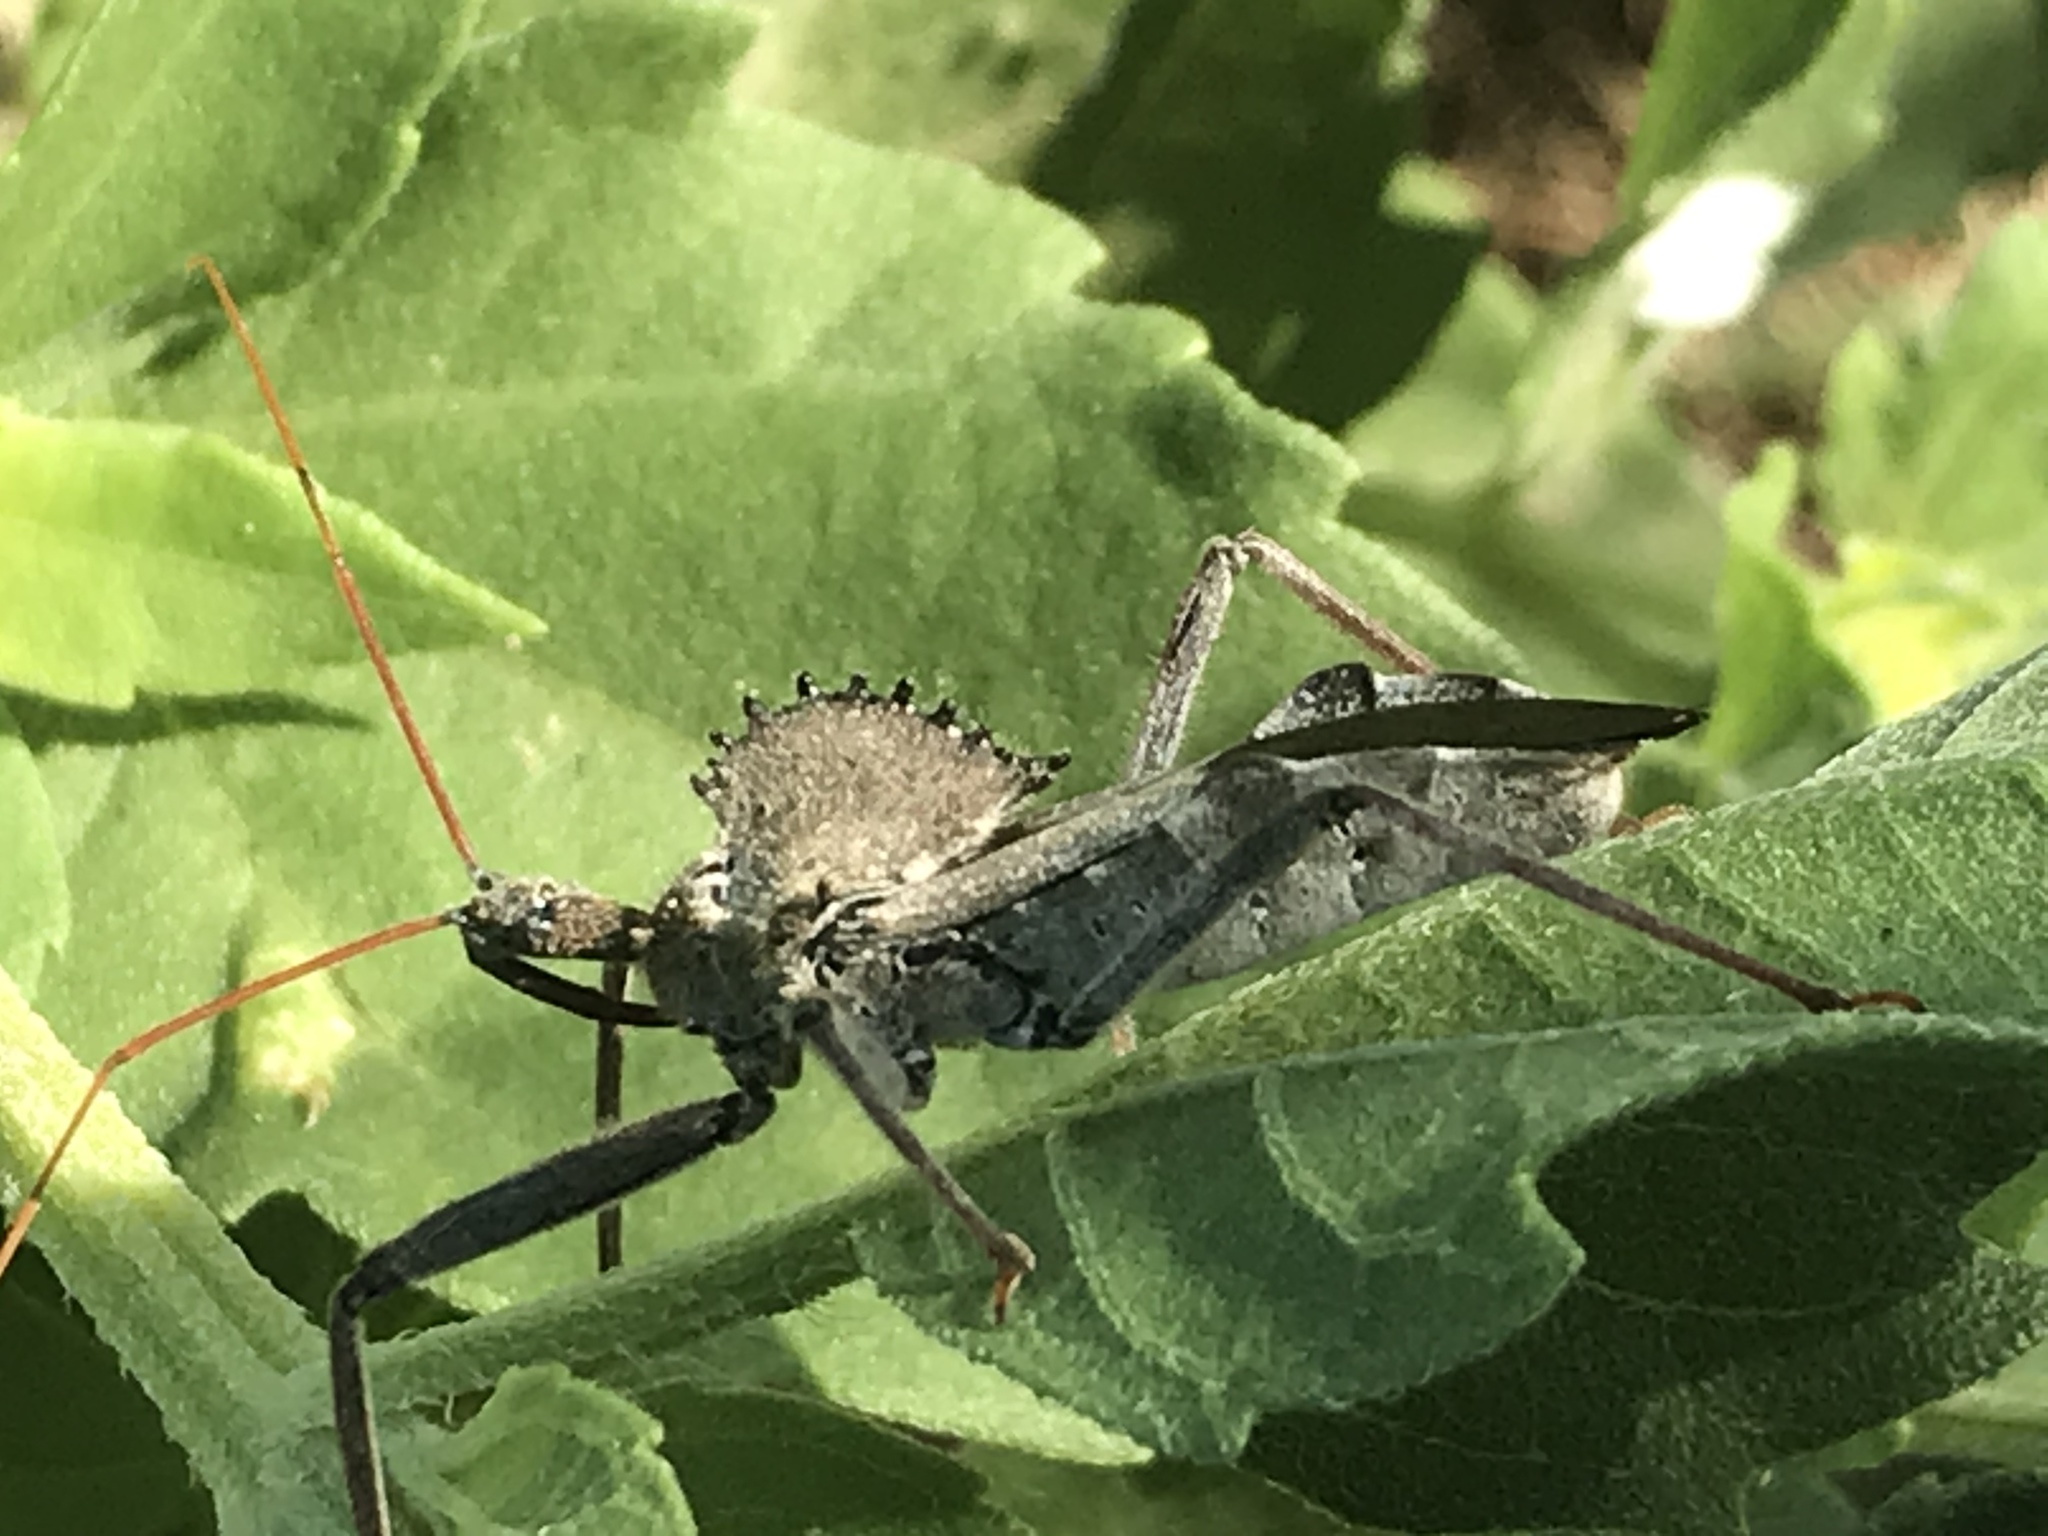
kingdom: Animalia
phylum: Arthropoda
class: Insecta
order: Hemiptera
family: Reduviidae
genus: Arilus
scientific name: Arilus cristatus
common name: North american wheel bug
